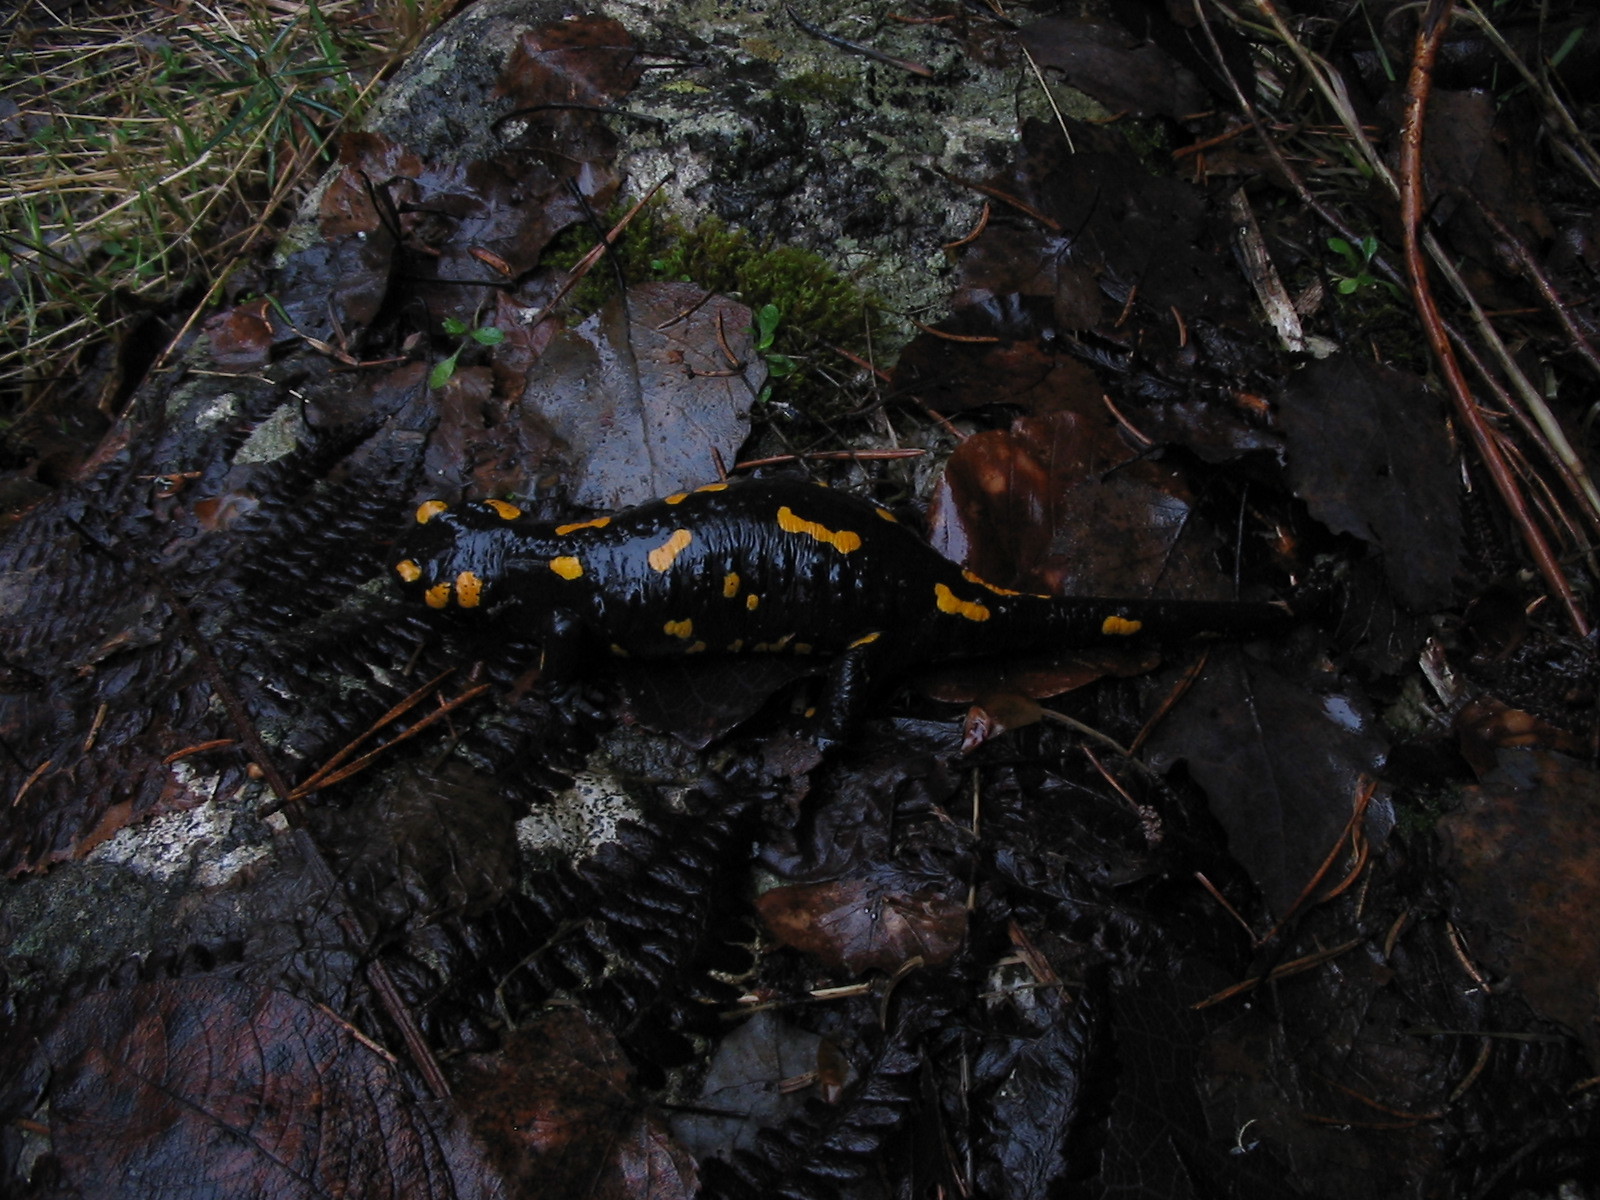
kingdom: Animalia
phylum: Chordata
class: Amphibia
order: Caudata
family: Salamandridae
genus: Salamandra
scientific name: Salamandra salamandra
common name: Fire salamander
